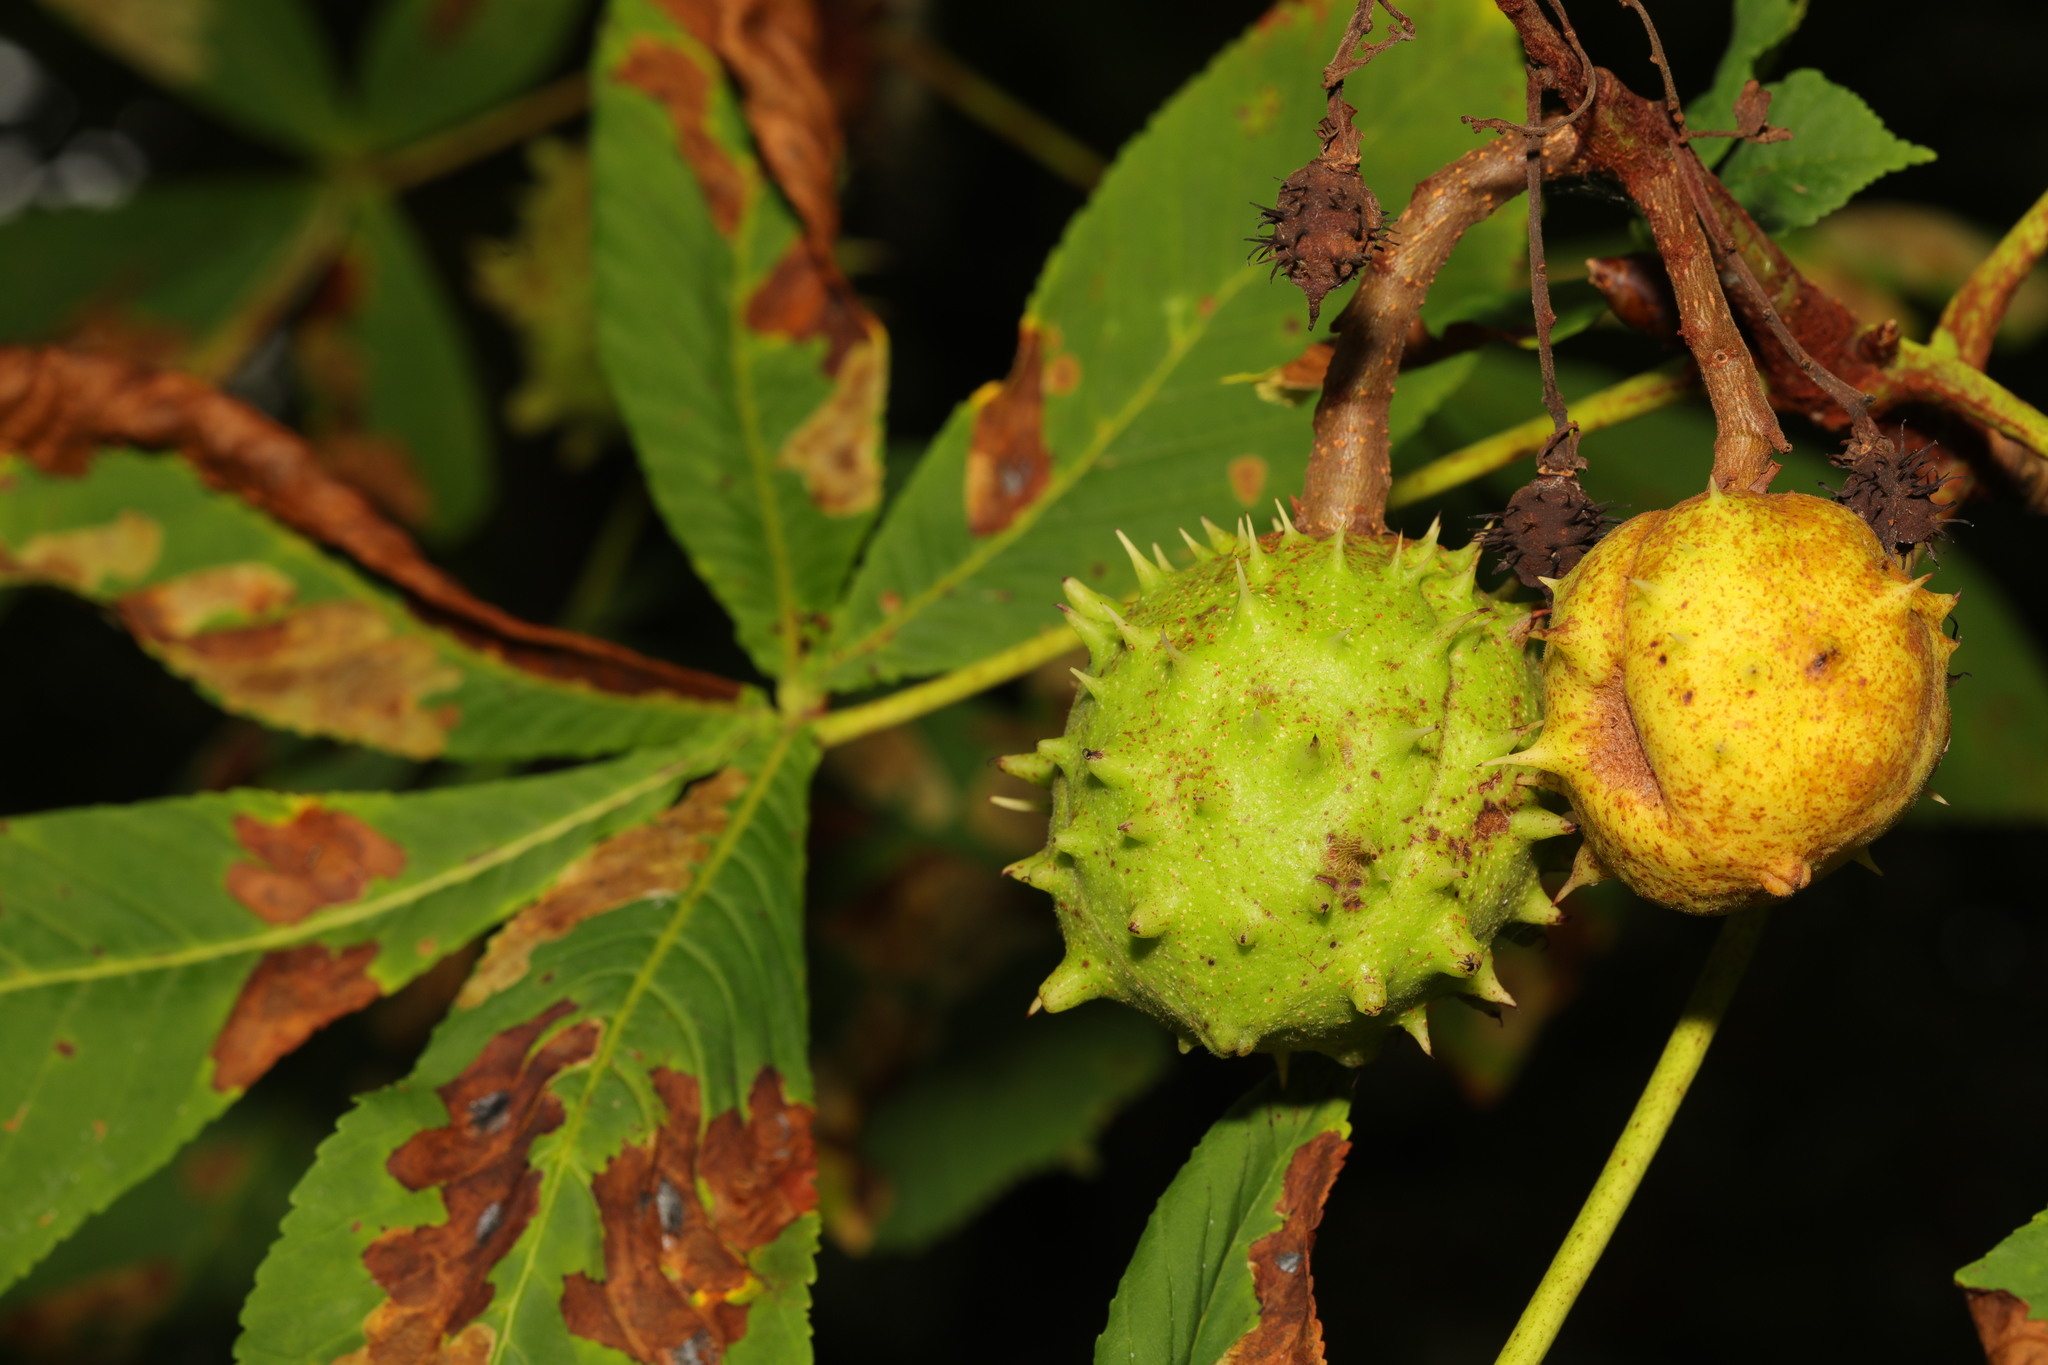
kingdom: Plantae
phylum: Tracheophyta
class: Magnoliopsida
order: Sapindales
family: Sapindaceae
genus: Aesculus
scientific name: Aesculus hippocastanum
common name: Horse-chestnut
